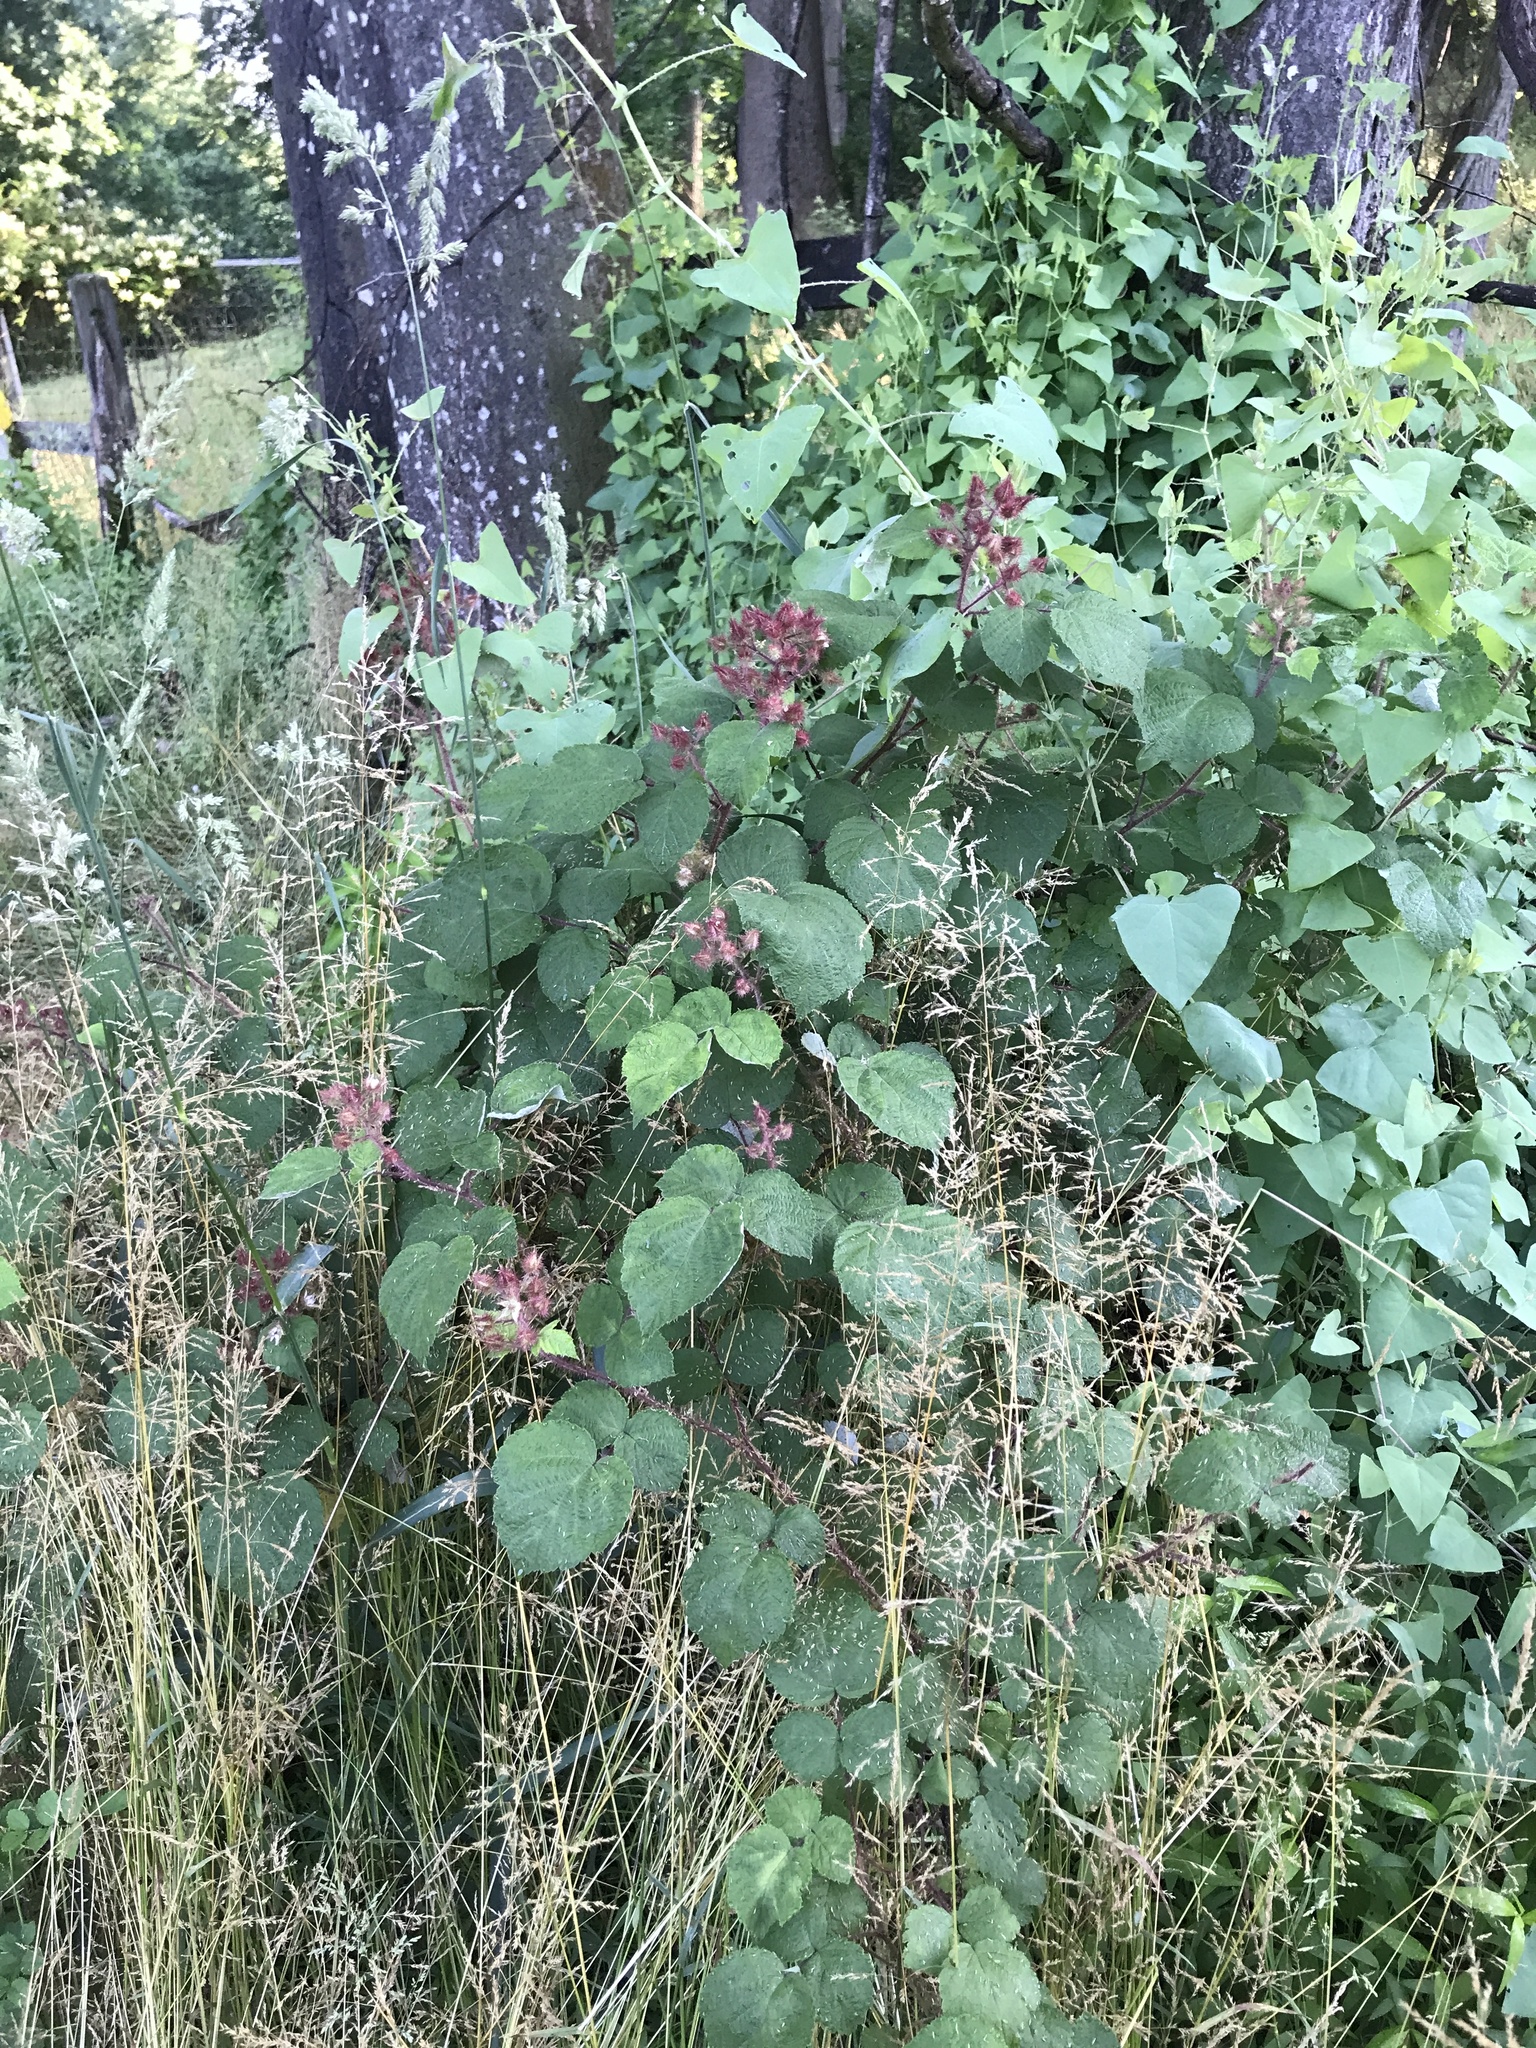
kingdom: Plantae
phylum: Tracheophyta
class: Magnoliopsida
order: Rosales
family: Rosaceae
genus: Rubus
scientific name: Rubus phoenicolasius
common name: Japanese wineberry
